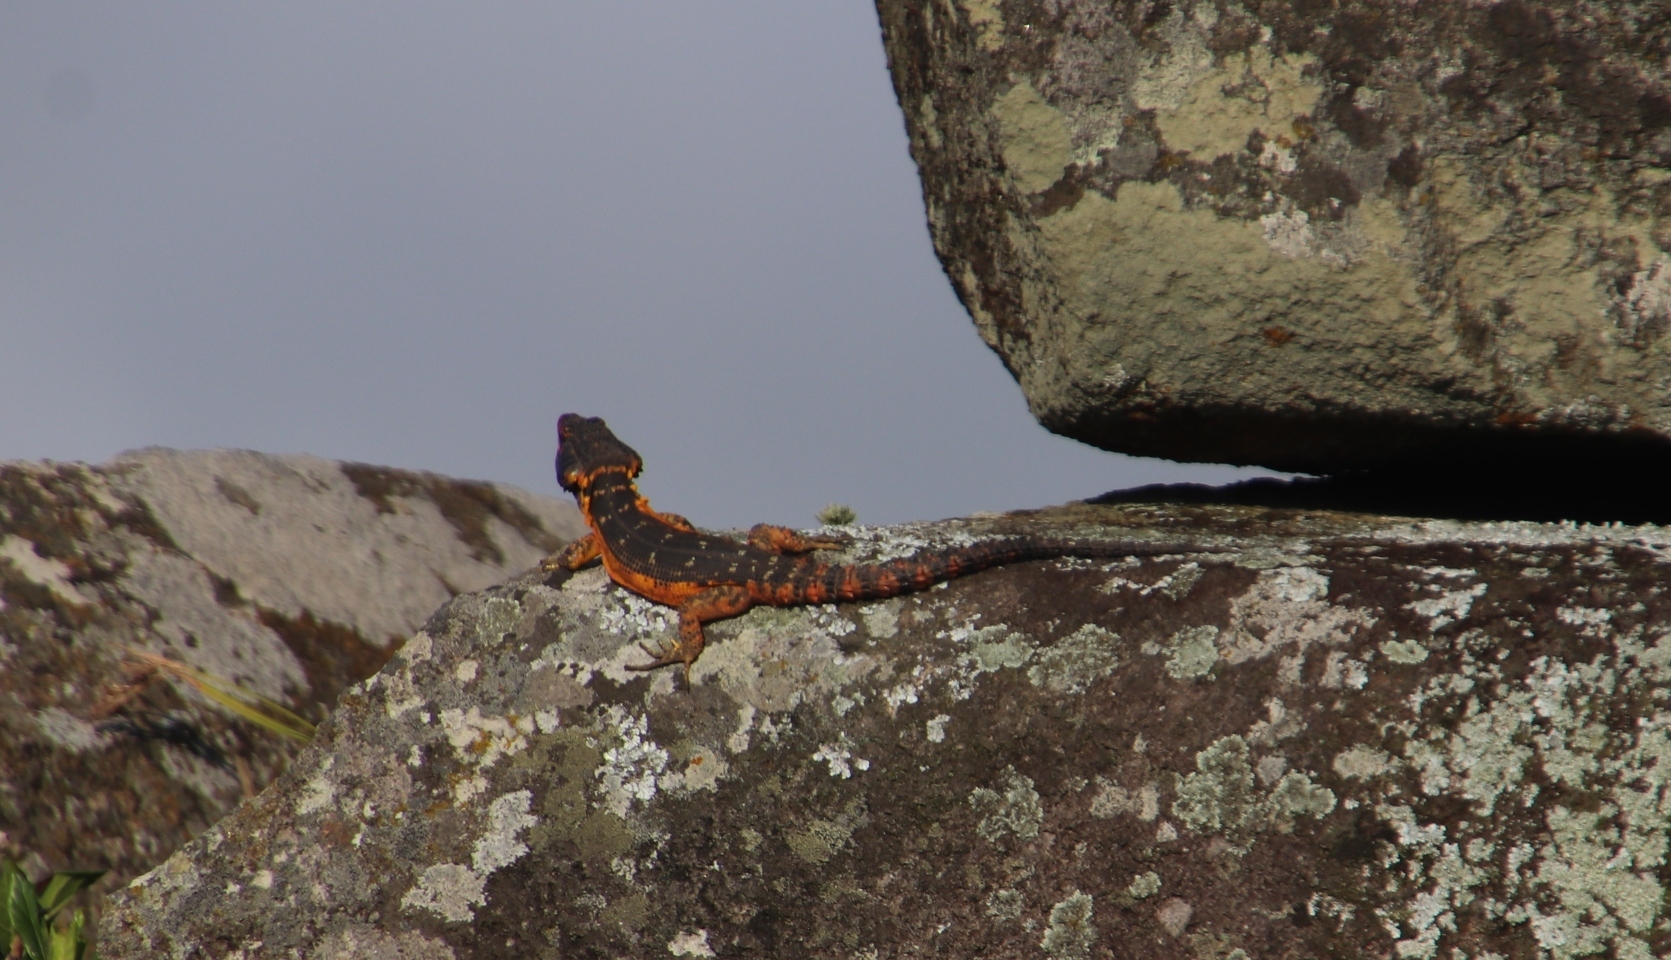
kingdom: Animalia
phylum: Chordata
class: Squamata
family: Cordylidae
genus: Pseudocordylus
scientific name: Pseudocordylus melanotus
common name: Highveld crag lizard
